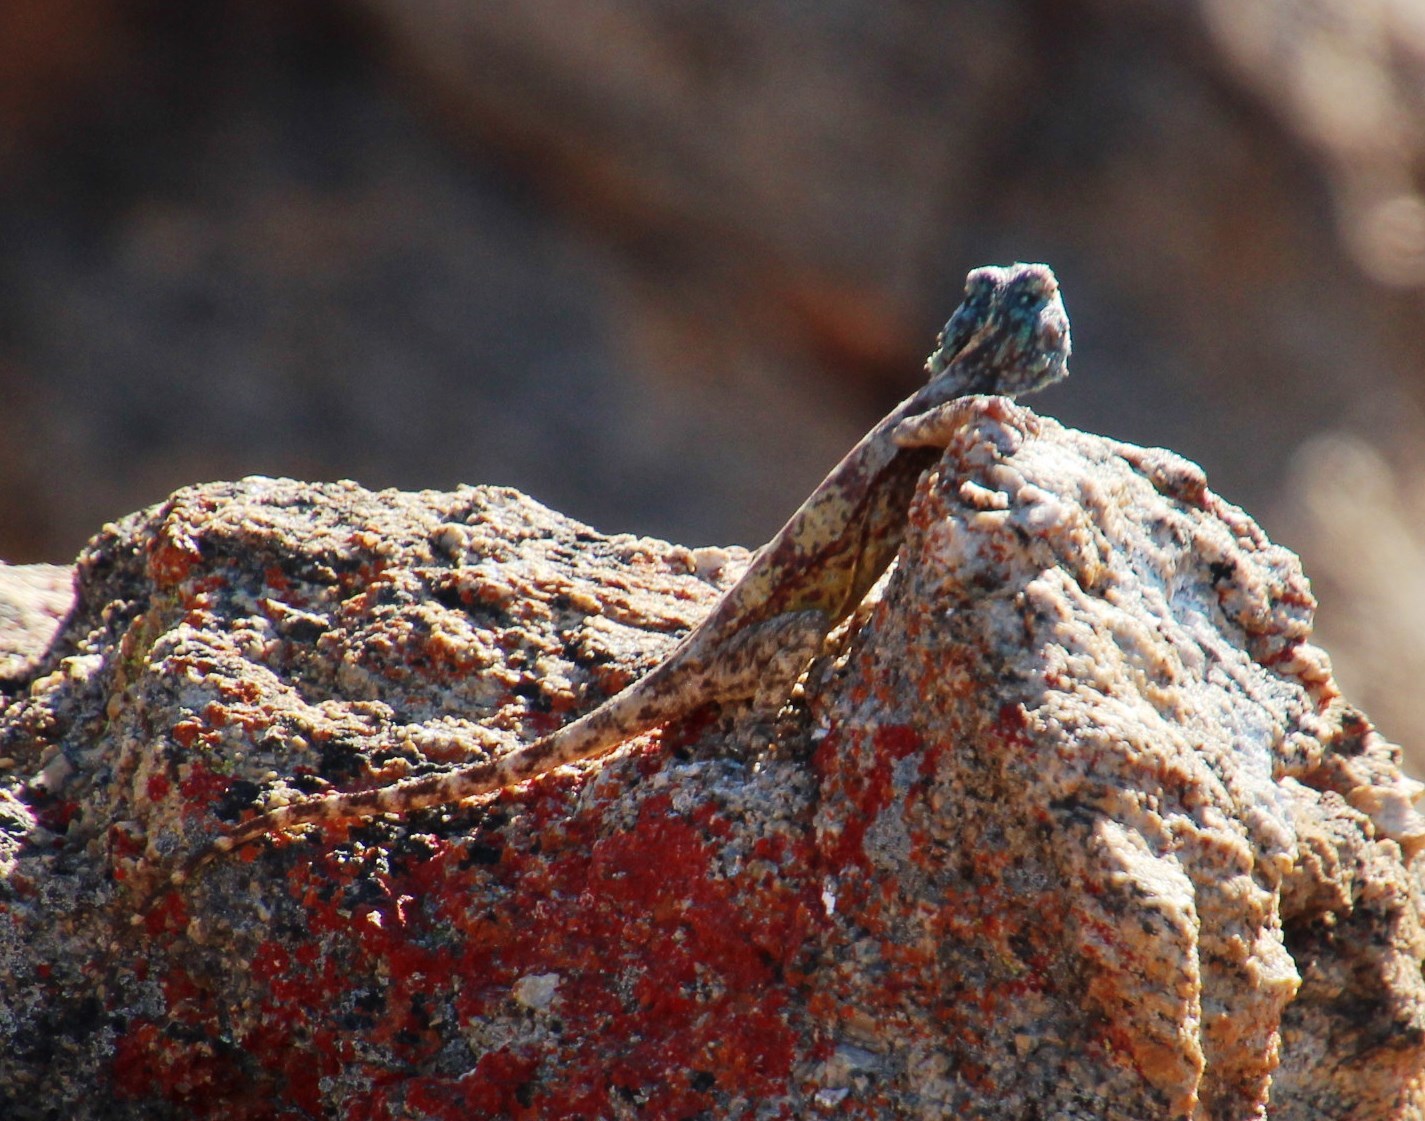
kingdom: Animalia
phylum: Chordata
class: Squamata
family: Agamidae
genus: Agama
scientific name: Agama atra
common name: Southern african rock agama
